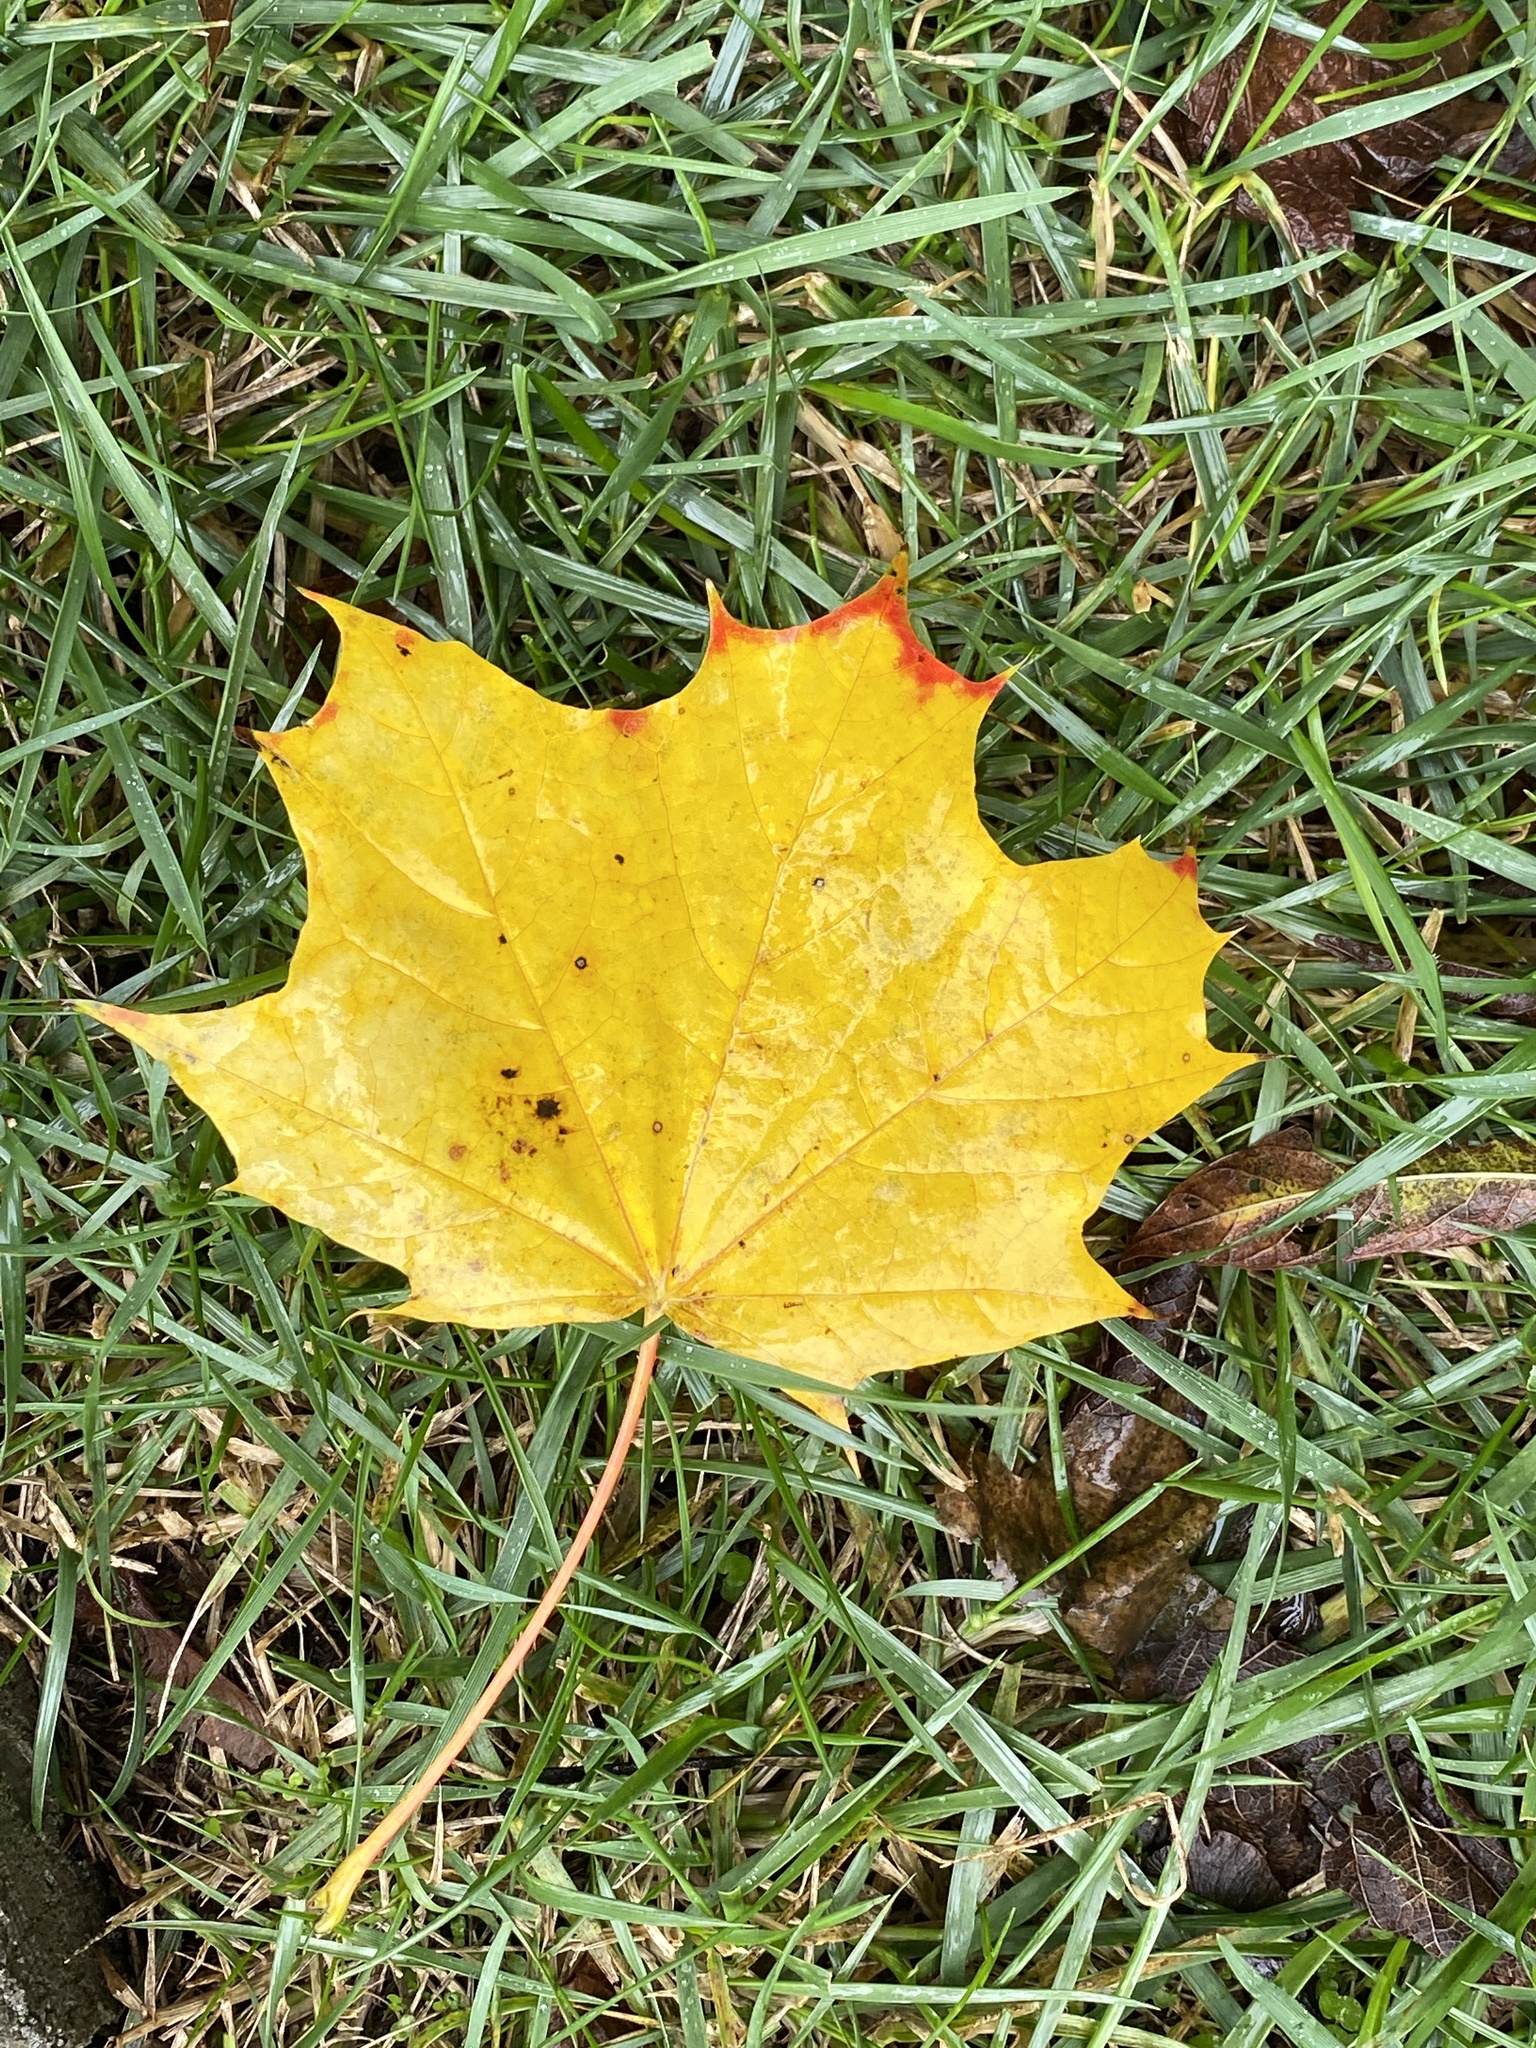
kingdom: Plantae
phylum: Tracheophyta
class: Magnoliopsida
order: Sapindales
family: Sapindaceae
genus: Acer
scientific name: Acer platanoides
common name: Norway maple
